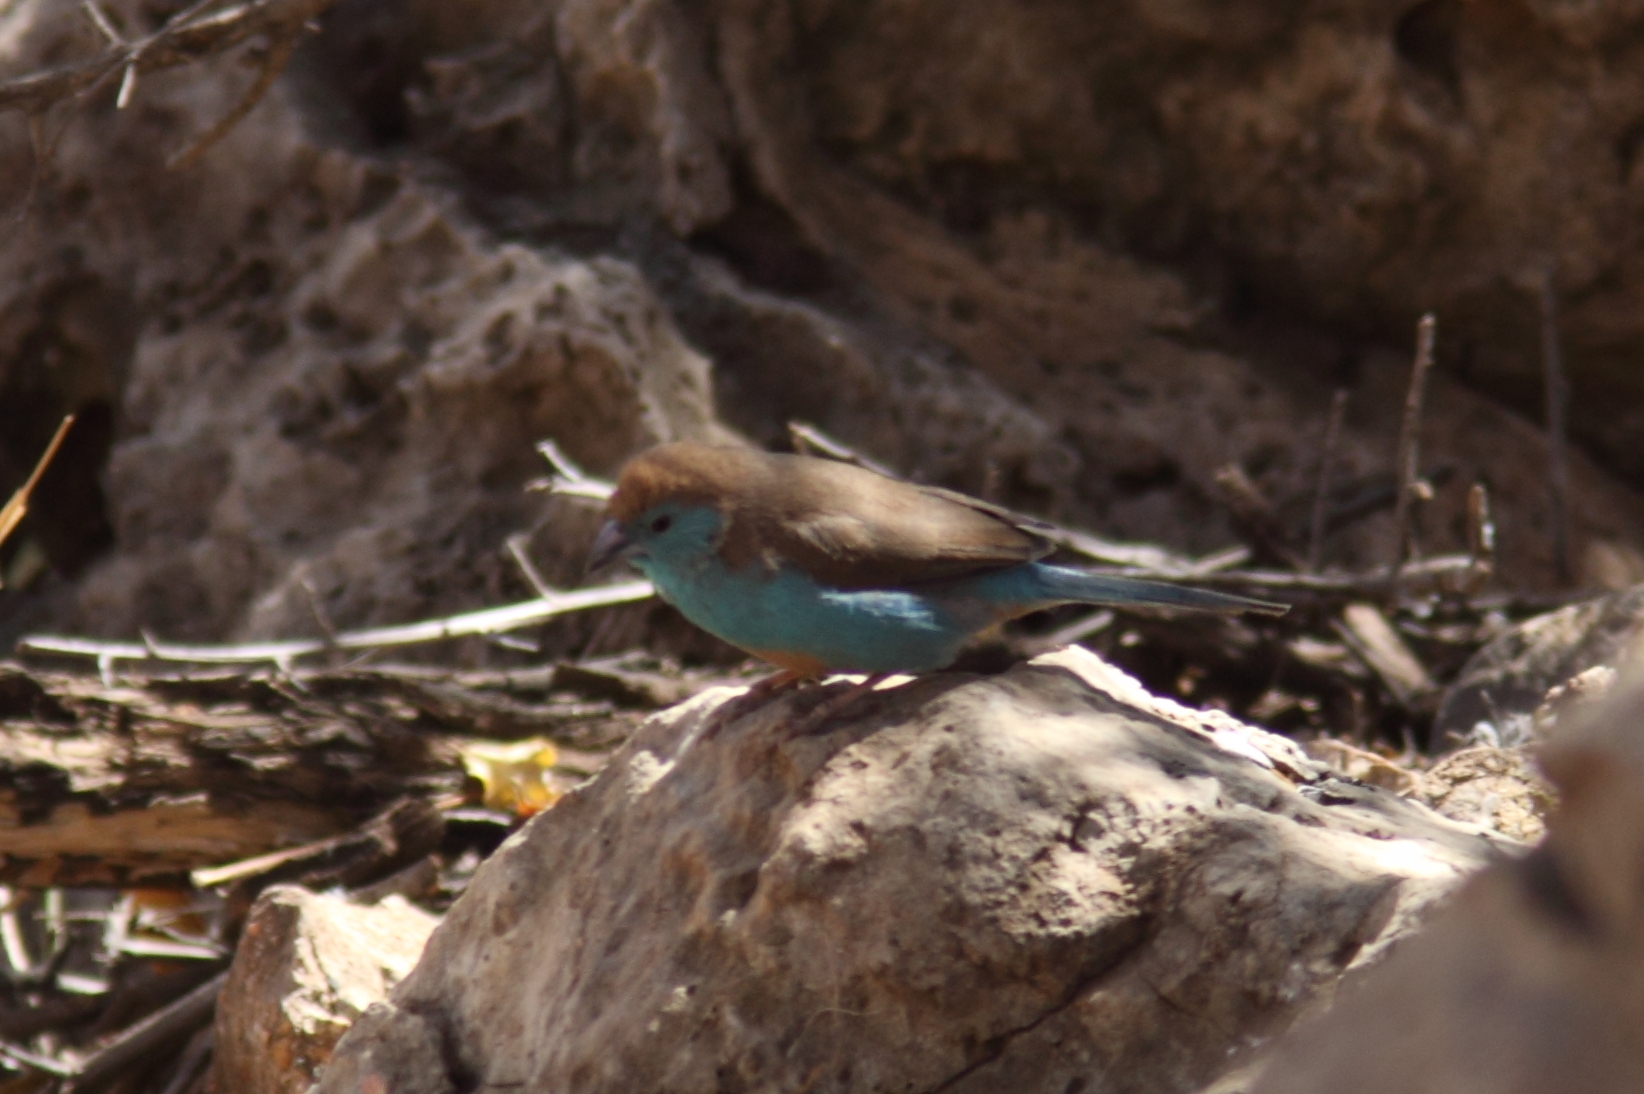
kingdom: Animalia
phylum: Chordata
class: Aves
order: Passeriformes
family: Estrildidae
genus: Uraeginthus
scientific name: Uraeginthus angolensis
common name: Blue waxbill
